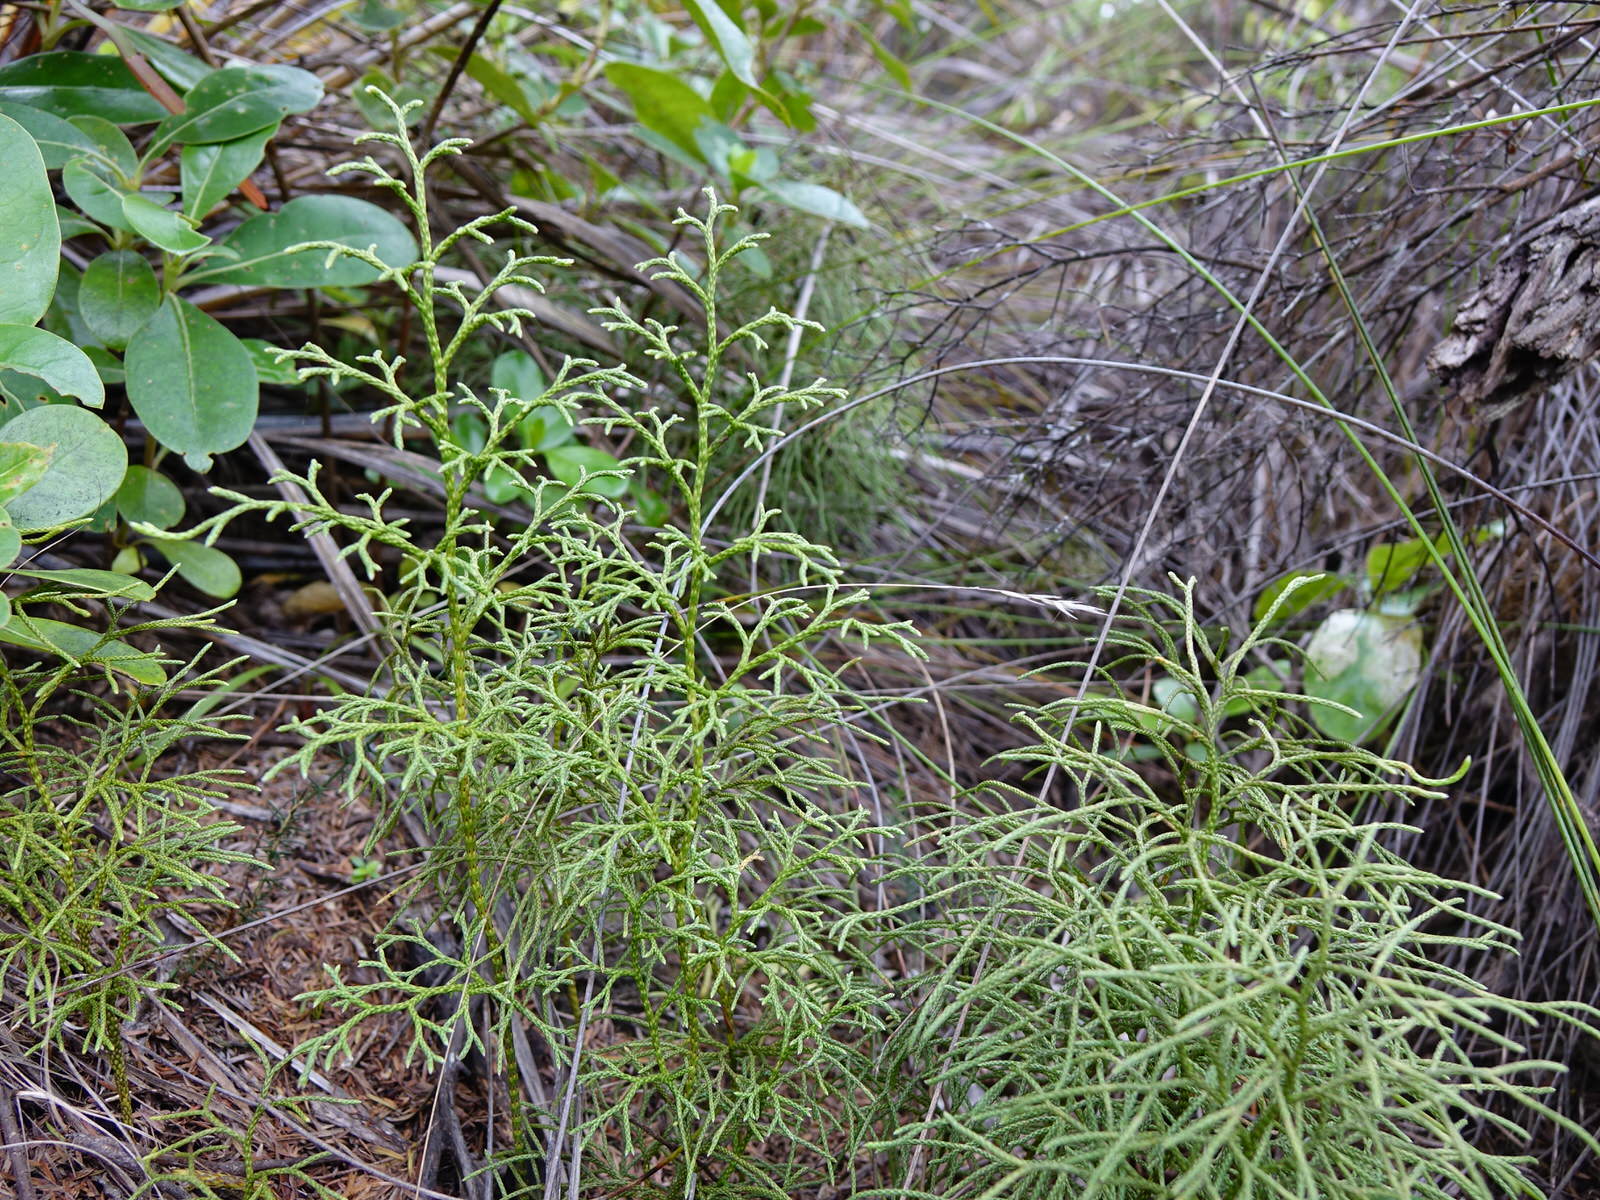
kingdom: Plantae
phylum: Tracheophyta
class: Lycopodiopsida
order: Lycopodiales
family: Lycopodiaceae
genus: Pseudolycopodium
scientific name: Pseudolycopodium densum
